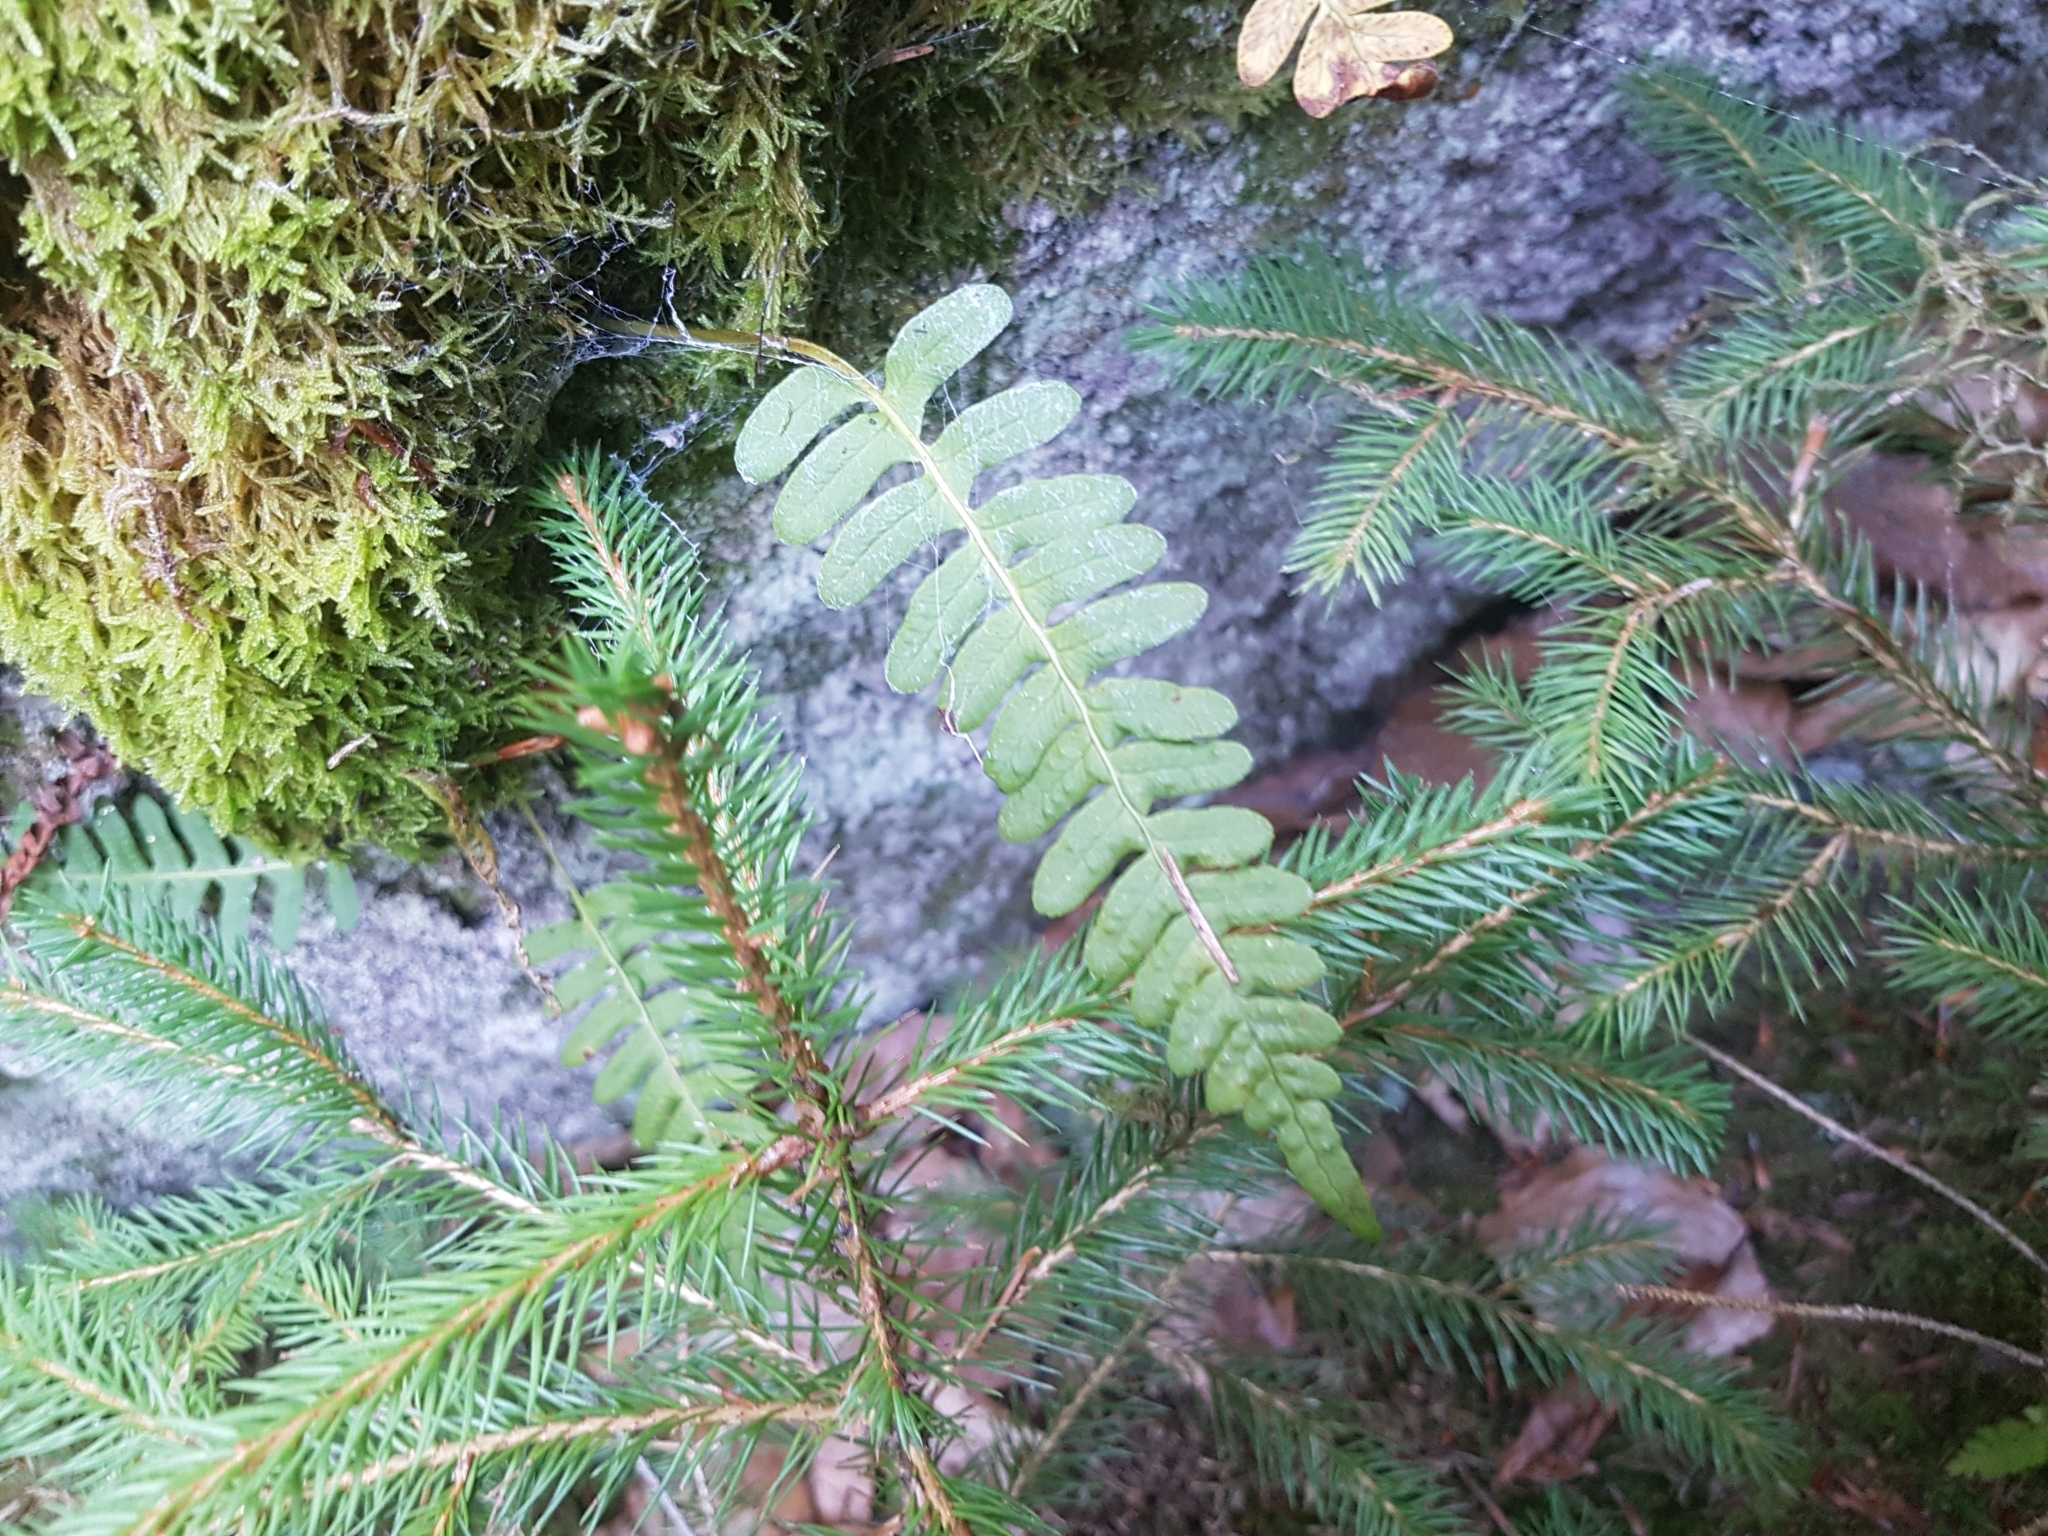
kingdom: Plantae
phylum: Tracheophyta
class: Polypodiopsida
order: Polypodiales
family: Polypodiaceae
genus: Polypodium
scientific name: Polypodium vulgare
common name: Common polypody
